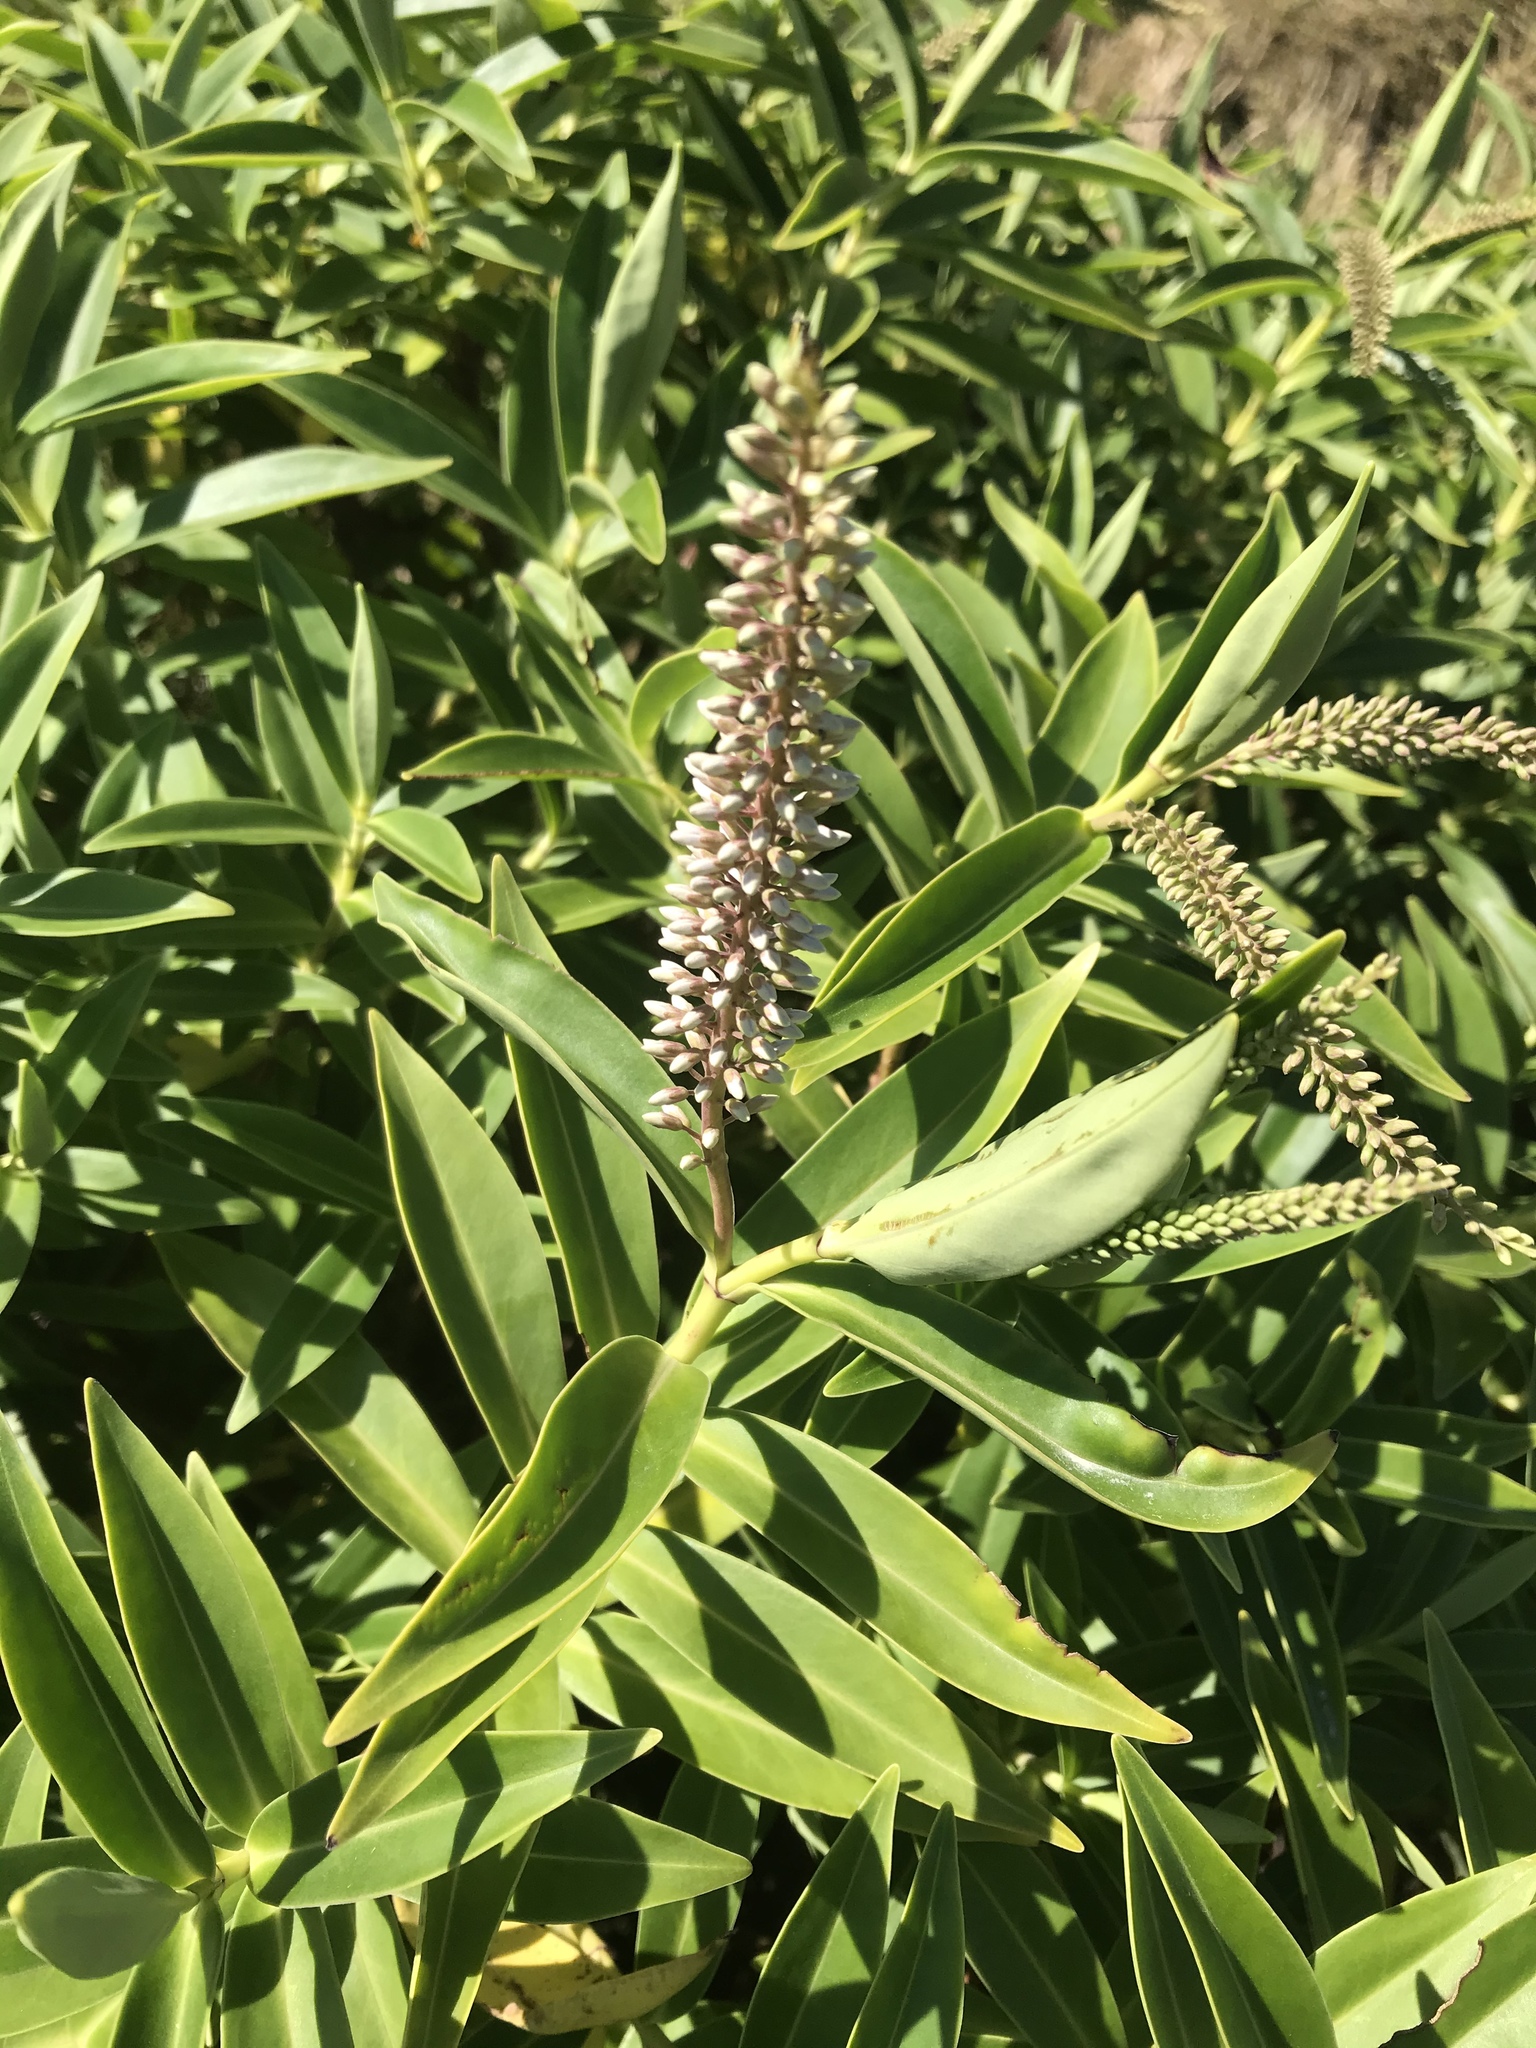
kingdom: Plantae
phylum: Tracheophyta
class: Magnoliopsida
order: Lamiales
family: Plantaginaceae
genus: Veronica
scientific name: Veronica stricta
